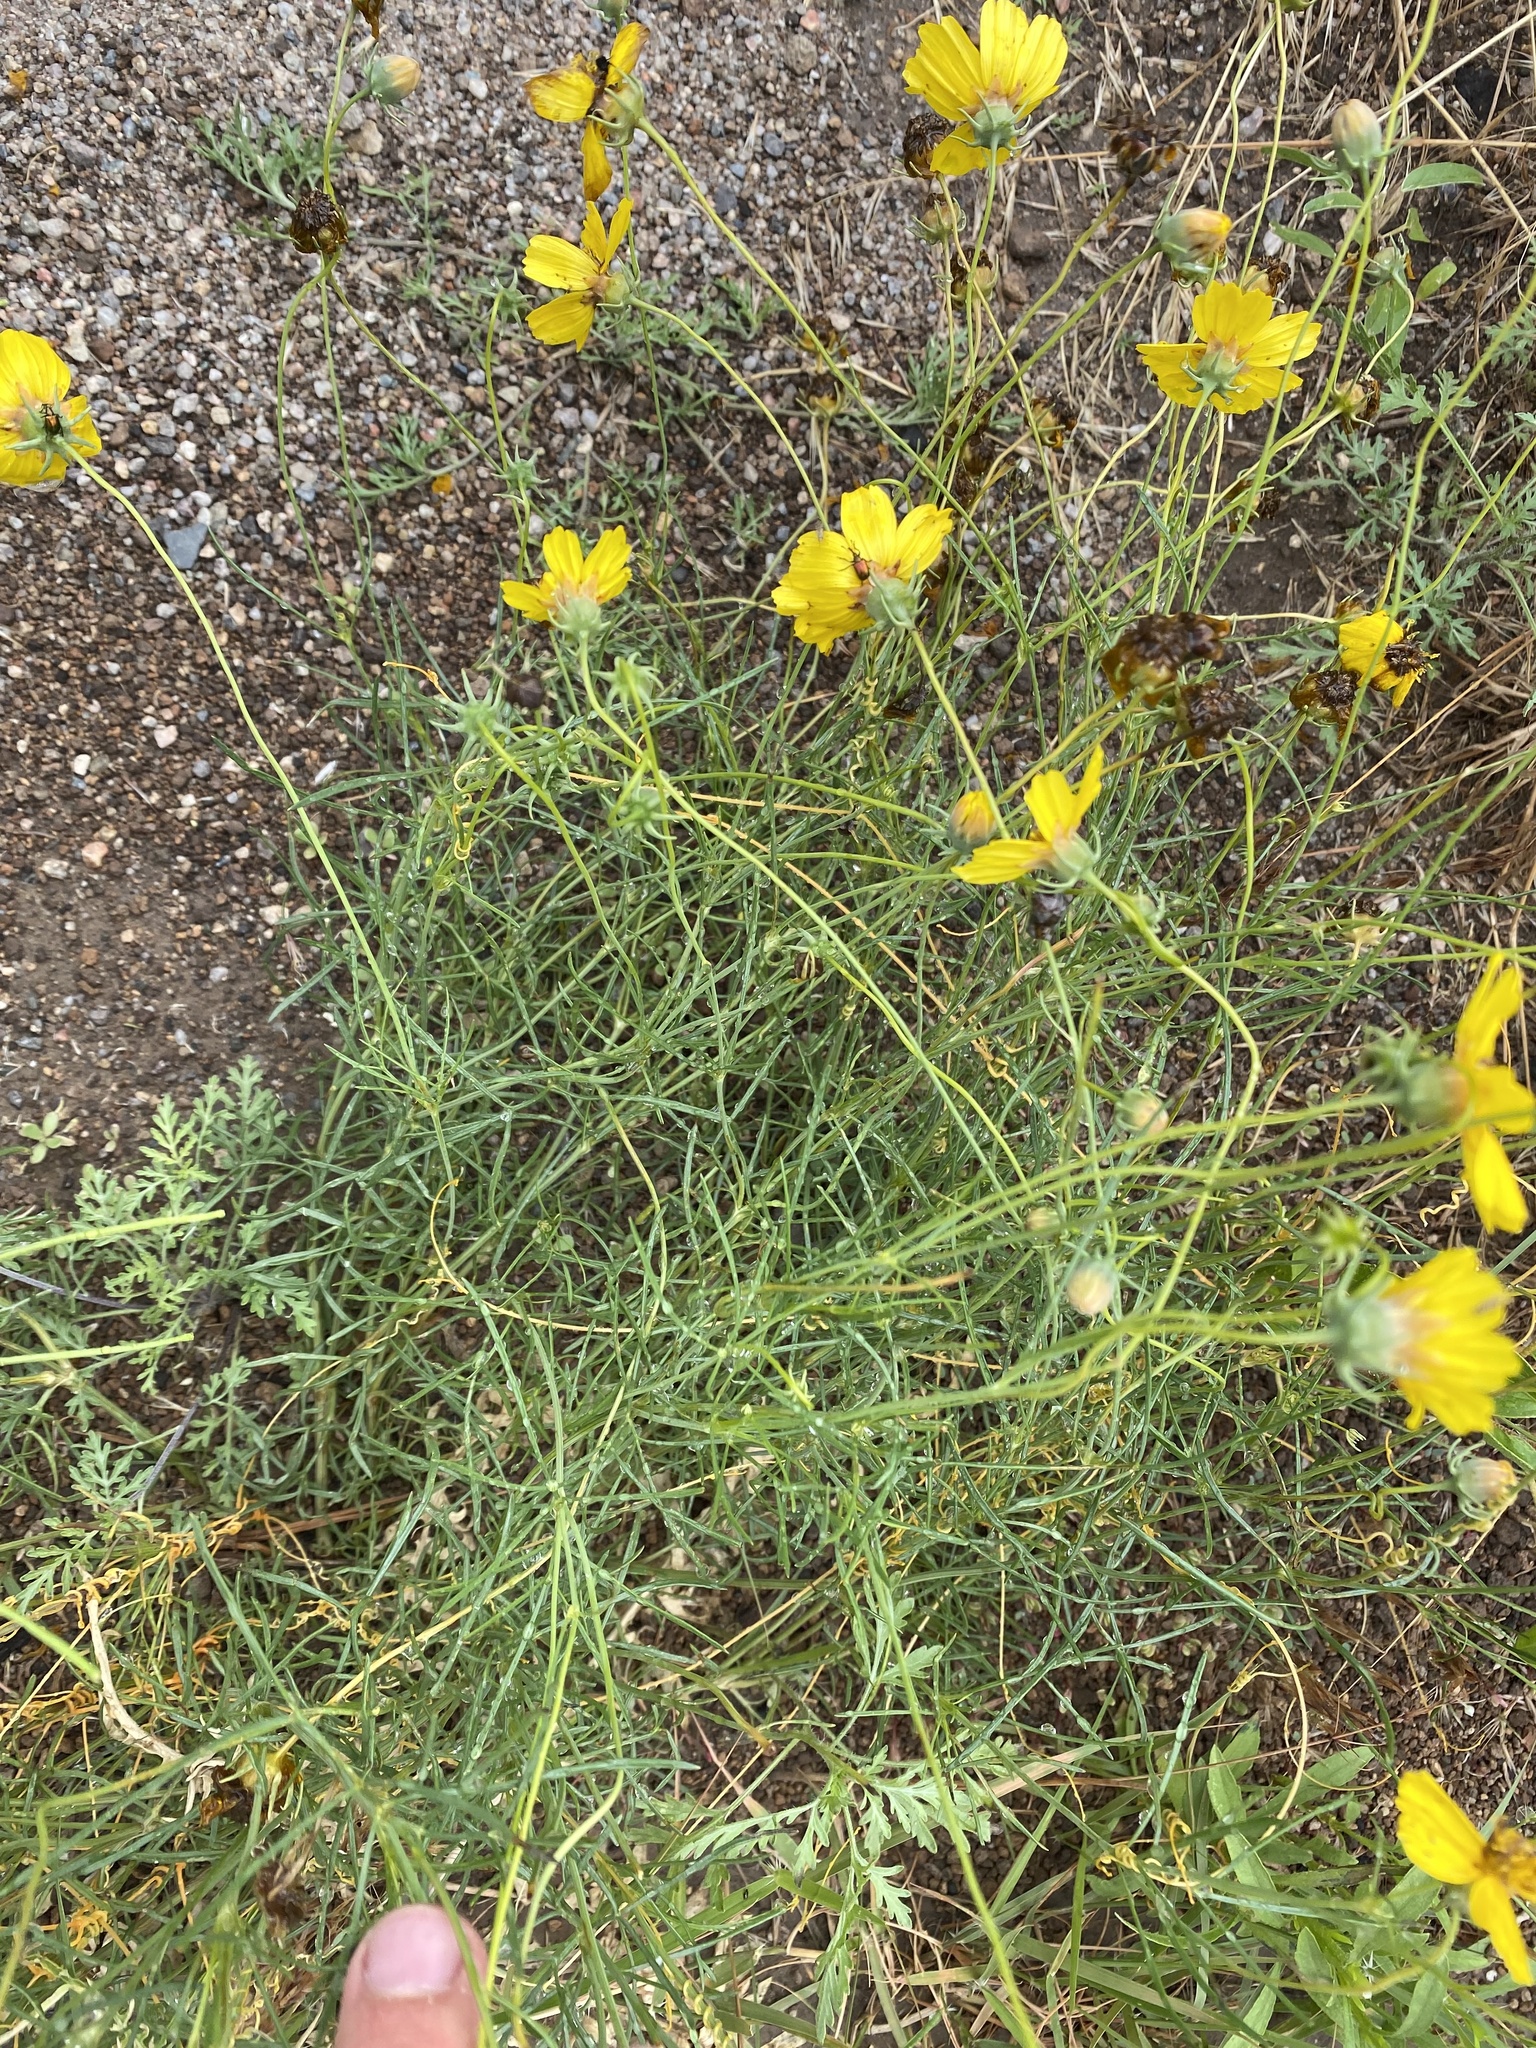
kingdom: Plantae
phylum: Tracheophyta
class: Magnoliopsida
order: Asterales
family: Asteraceae
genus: Thelesperma
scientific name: Thelesperma filifolium
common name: Stiff greenthread
